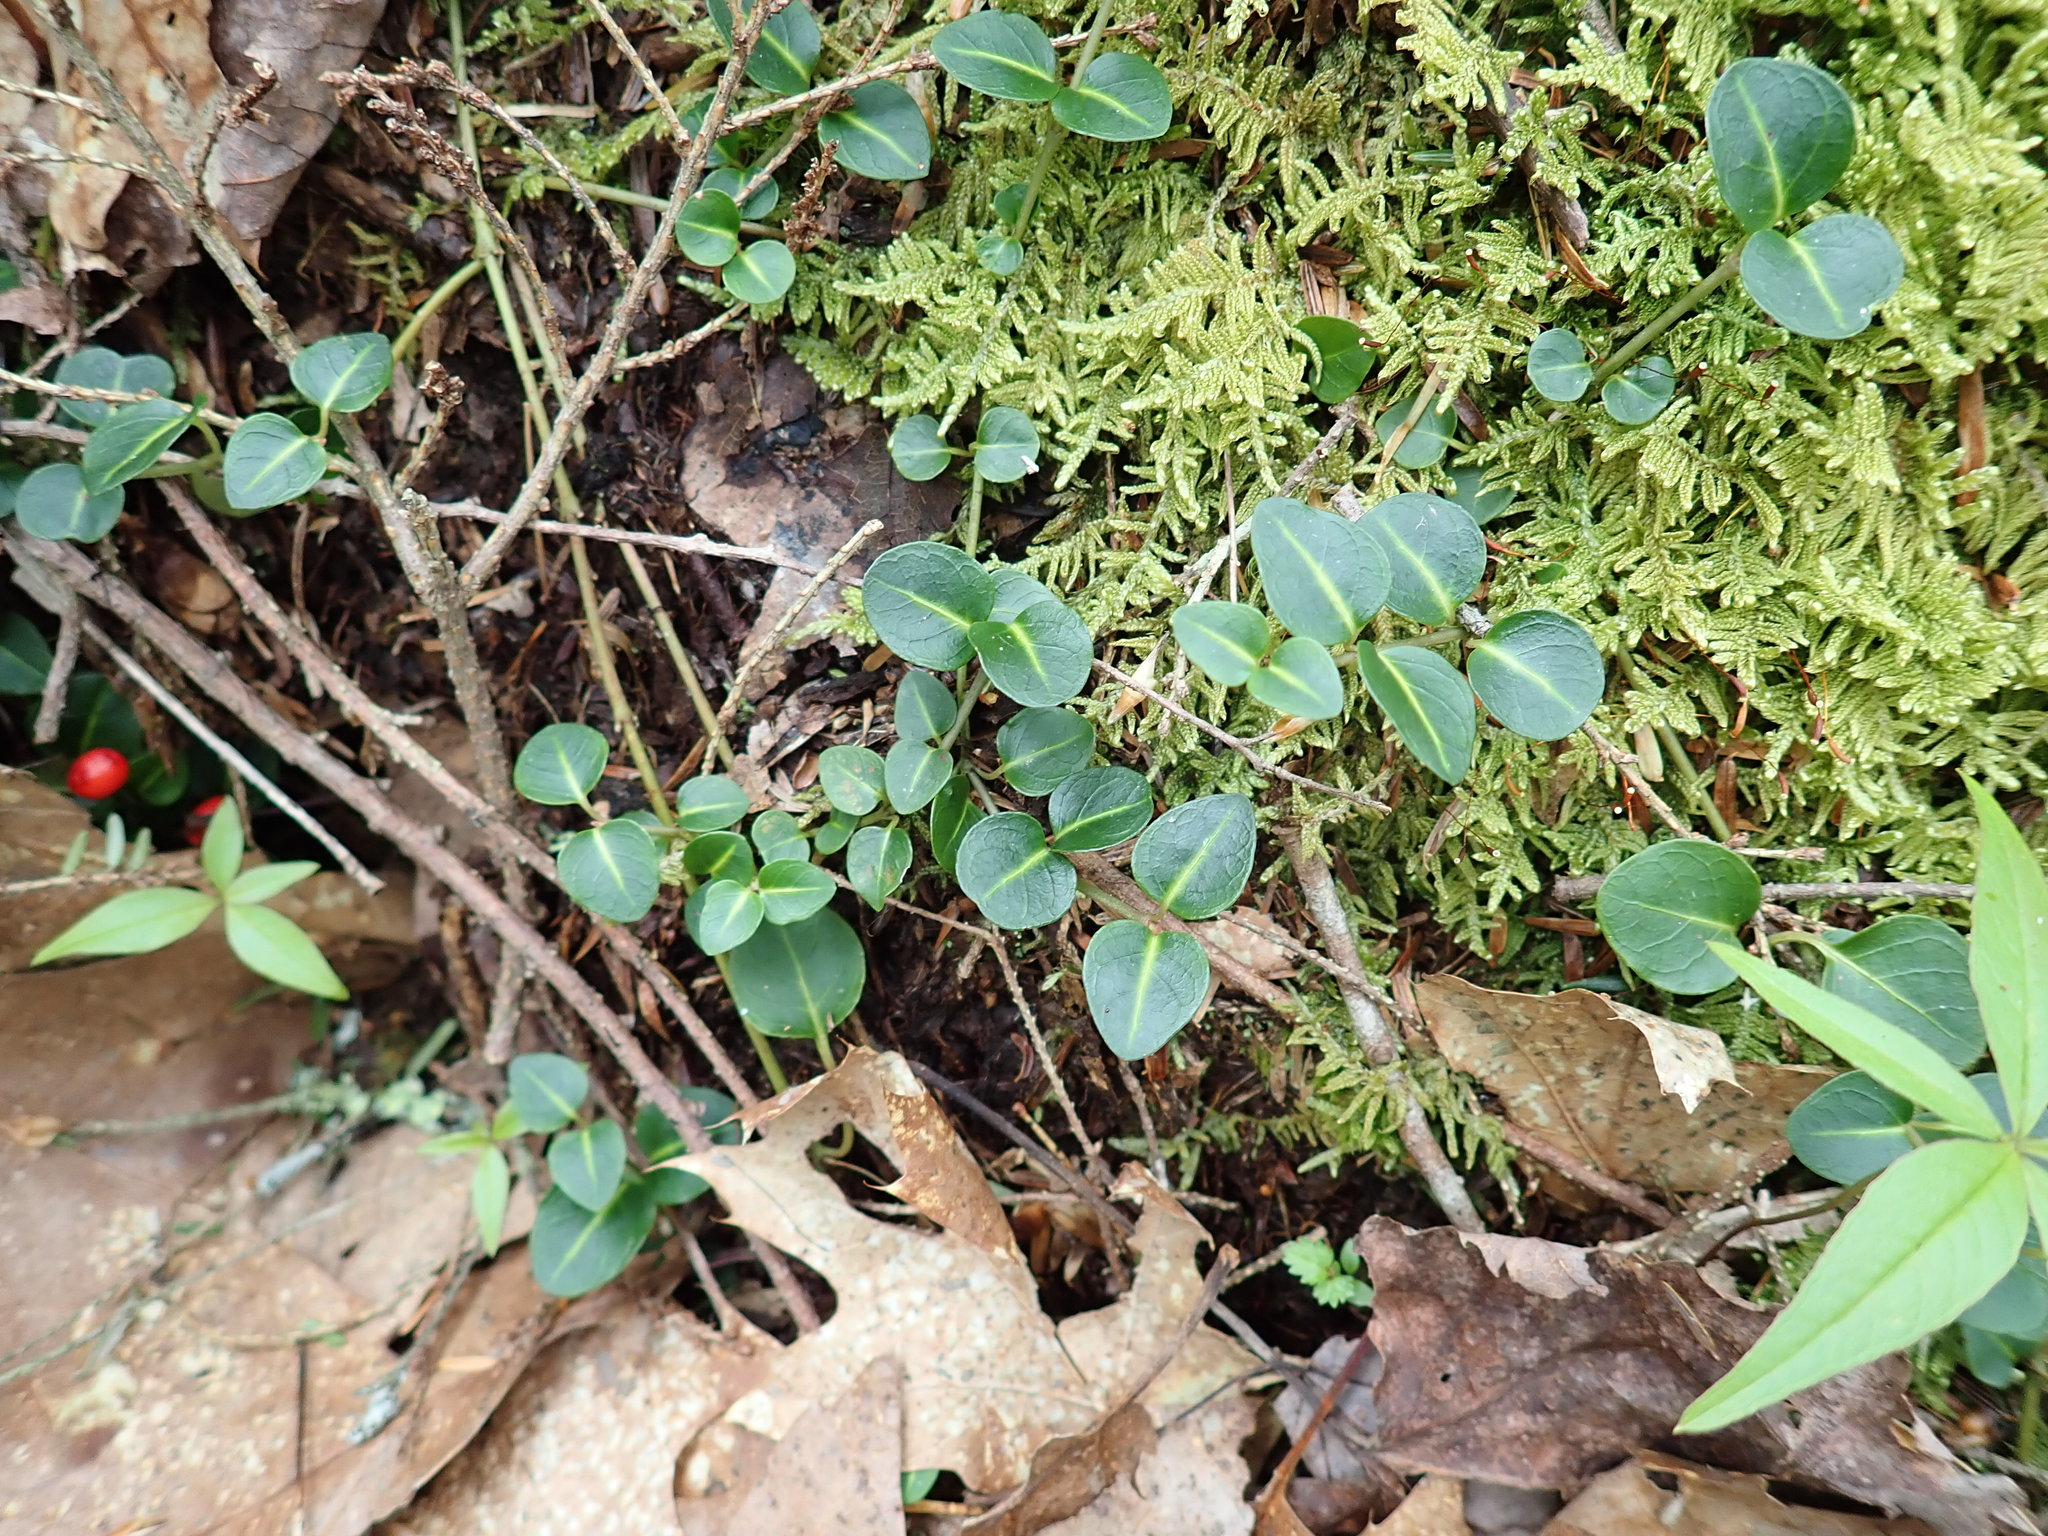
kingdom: Plantae
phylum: Tracheophyta
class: Magnoliopsida
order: Gentianales
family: Rubiaceae
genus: Mitchella
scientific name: Mitchella repens
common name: Partridge-berry
